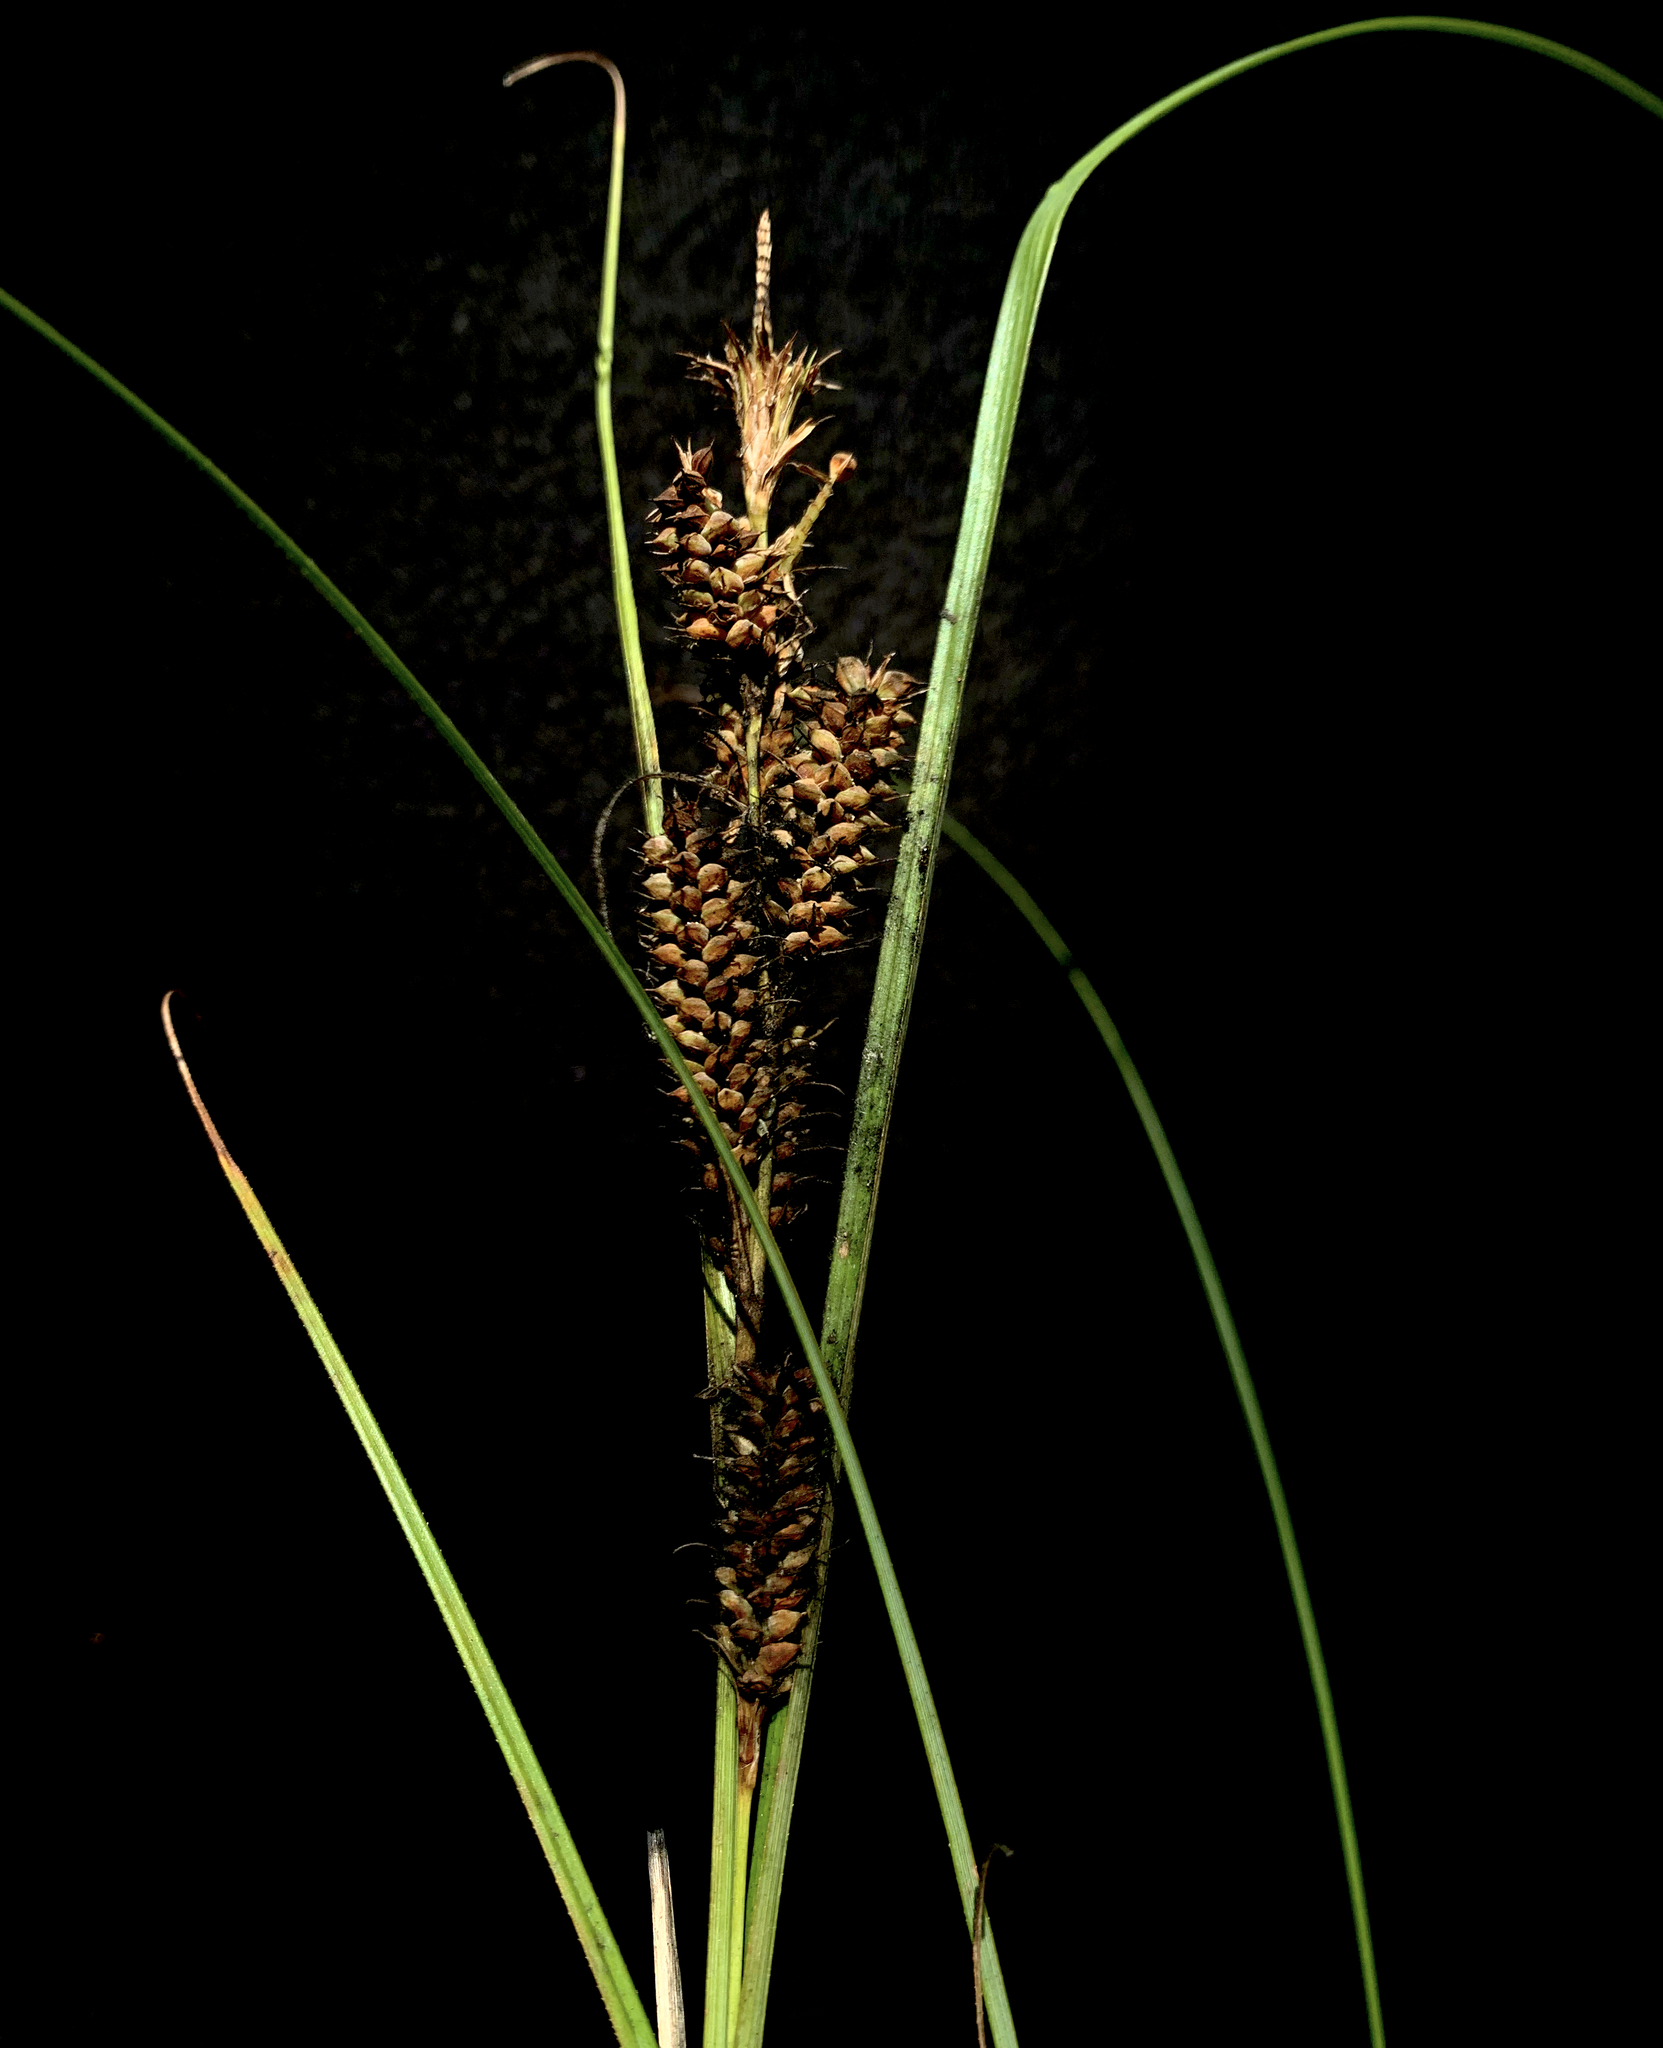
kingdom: Plantae
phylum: Tracheophyta
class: Liliopsida
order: Poales
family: Cyperaceae
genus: Carex
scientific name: Carex verrucosa
